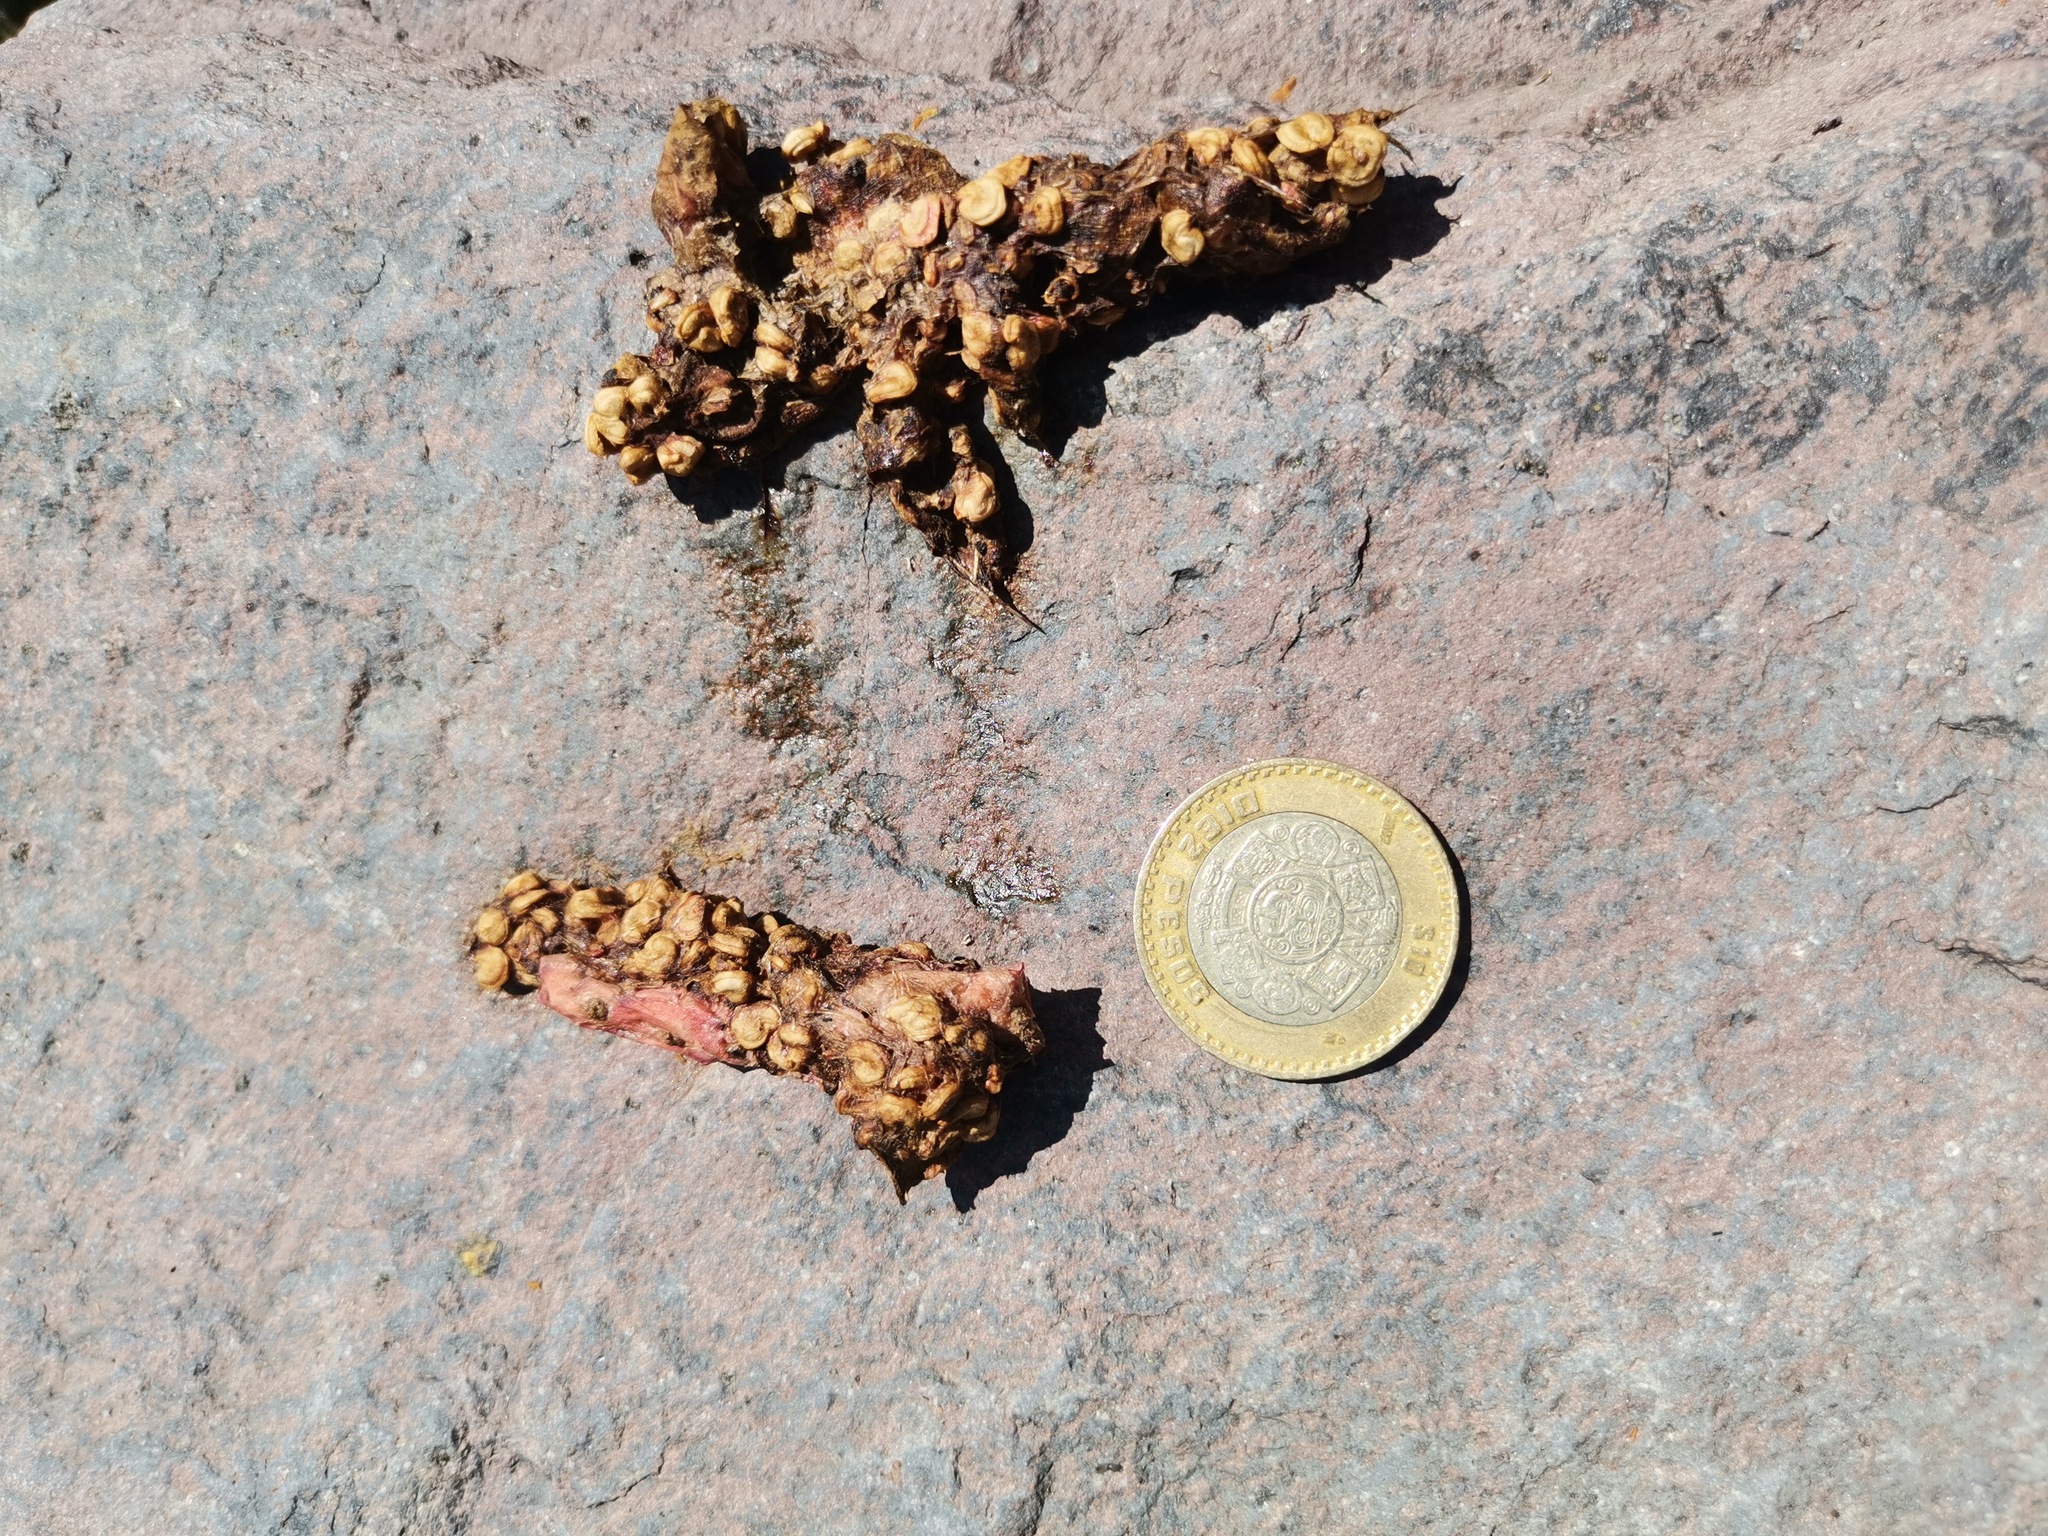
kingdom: Animalia
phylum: Chordata
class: Mammalia
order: Carnivora
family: Procyonidae
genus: Bassariscus
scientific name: Bassariscus astutus
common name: Ringtail
